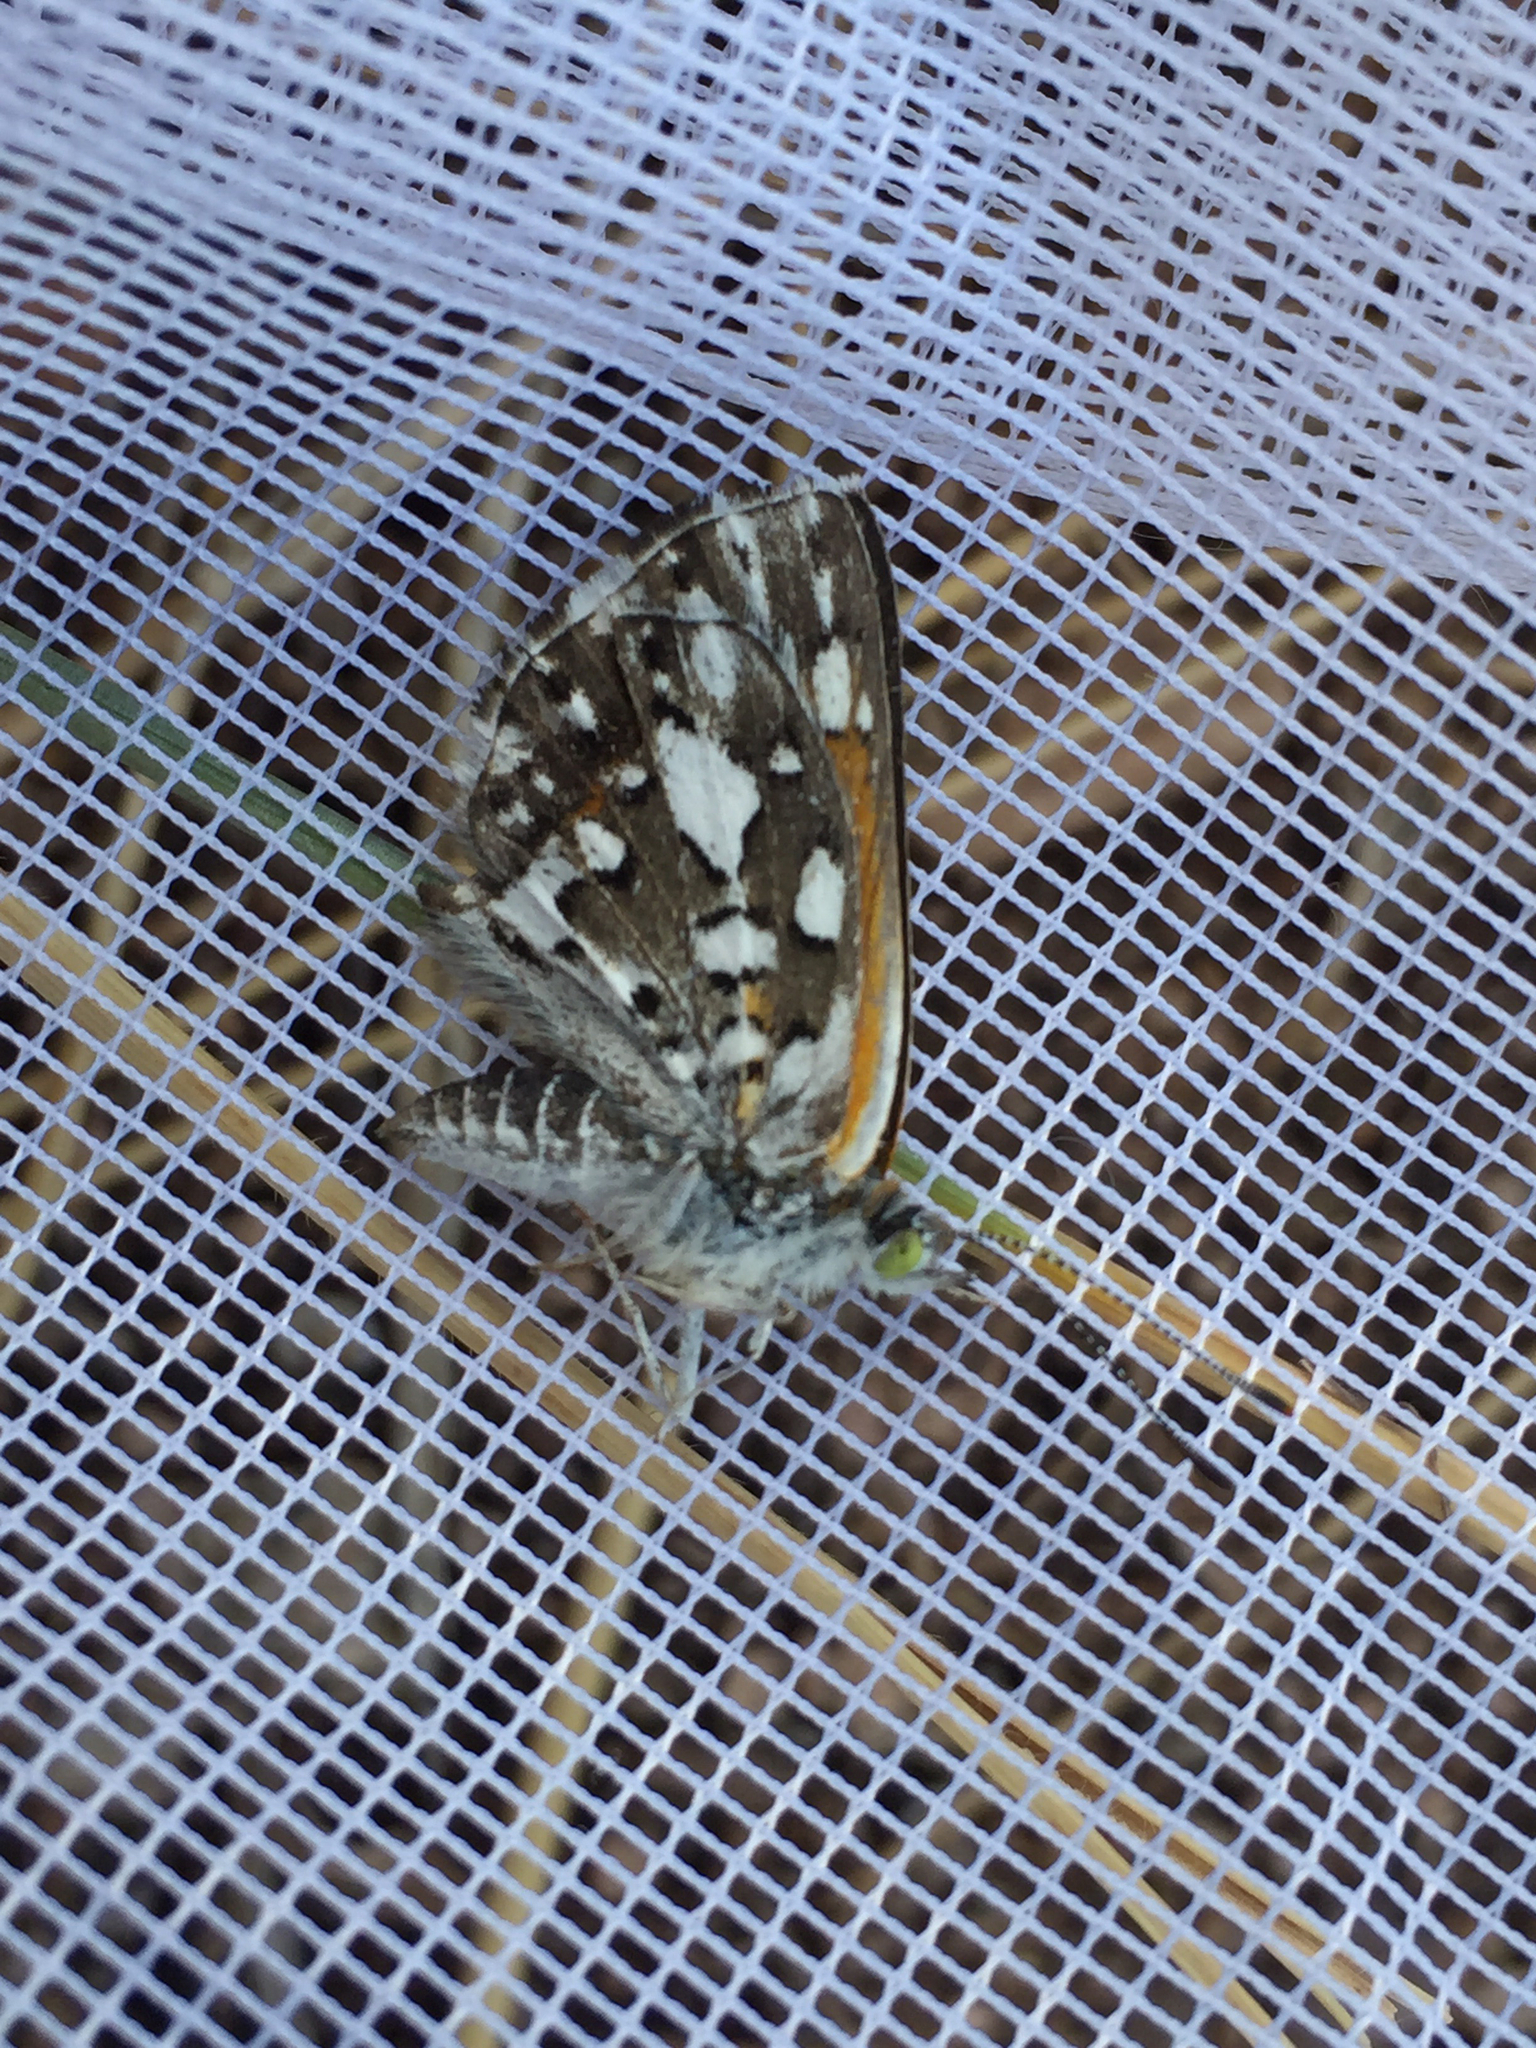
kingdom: Animalia
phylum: Arthropoda
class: Insecta
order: Lepidoptera
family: Riodinidae
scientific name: Riodinidae
